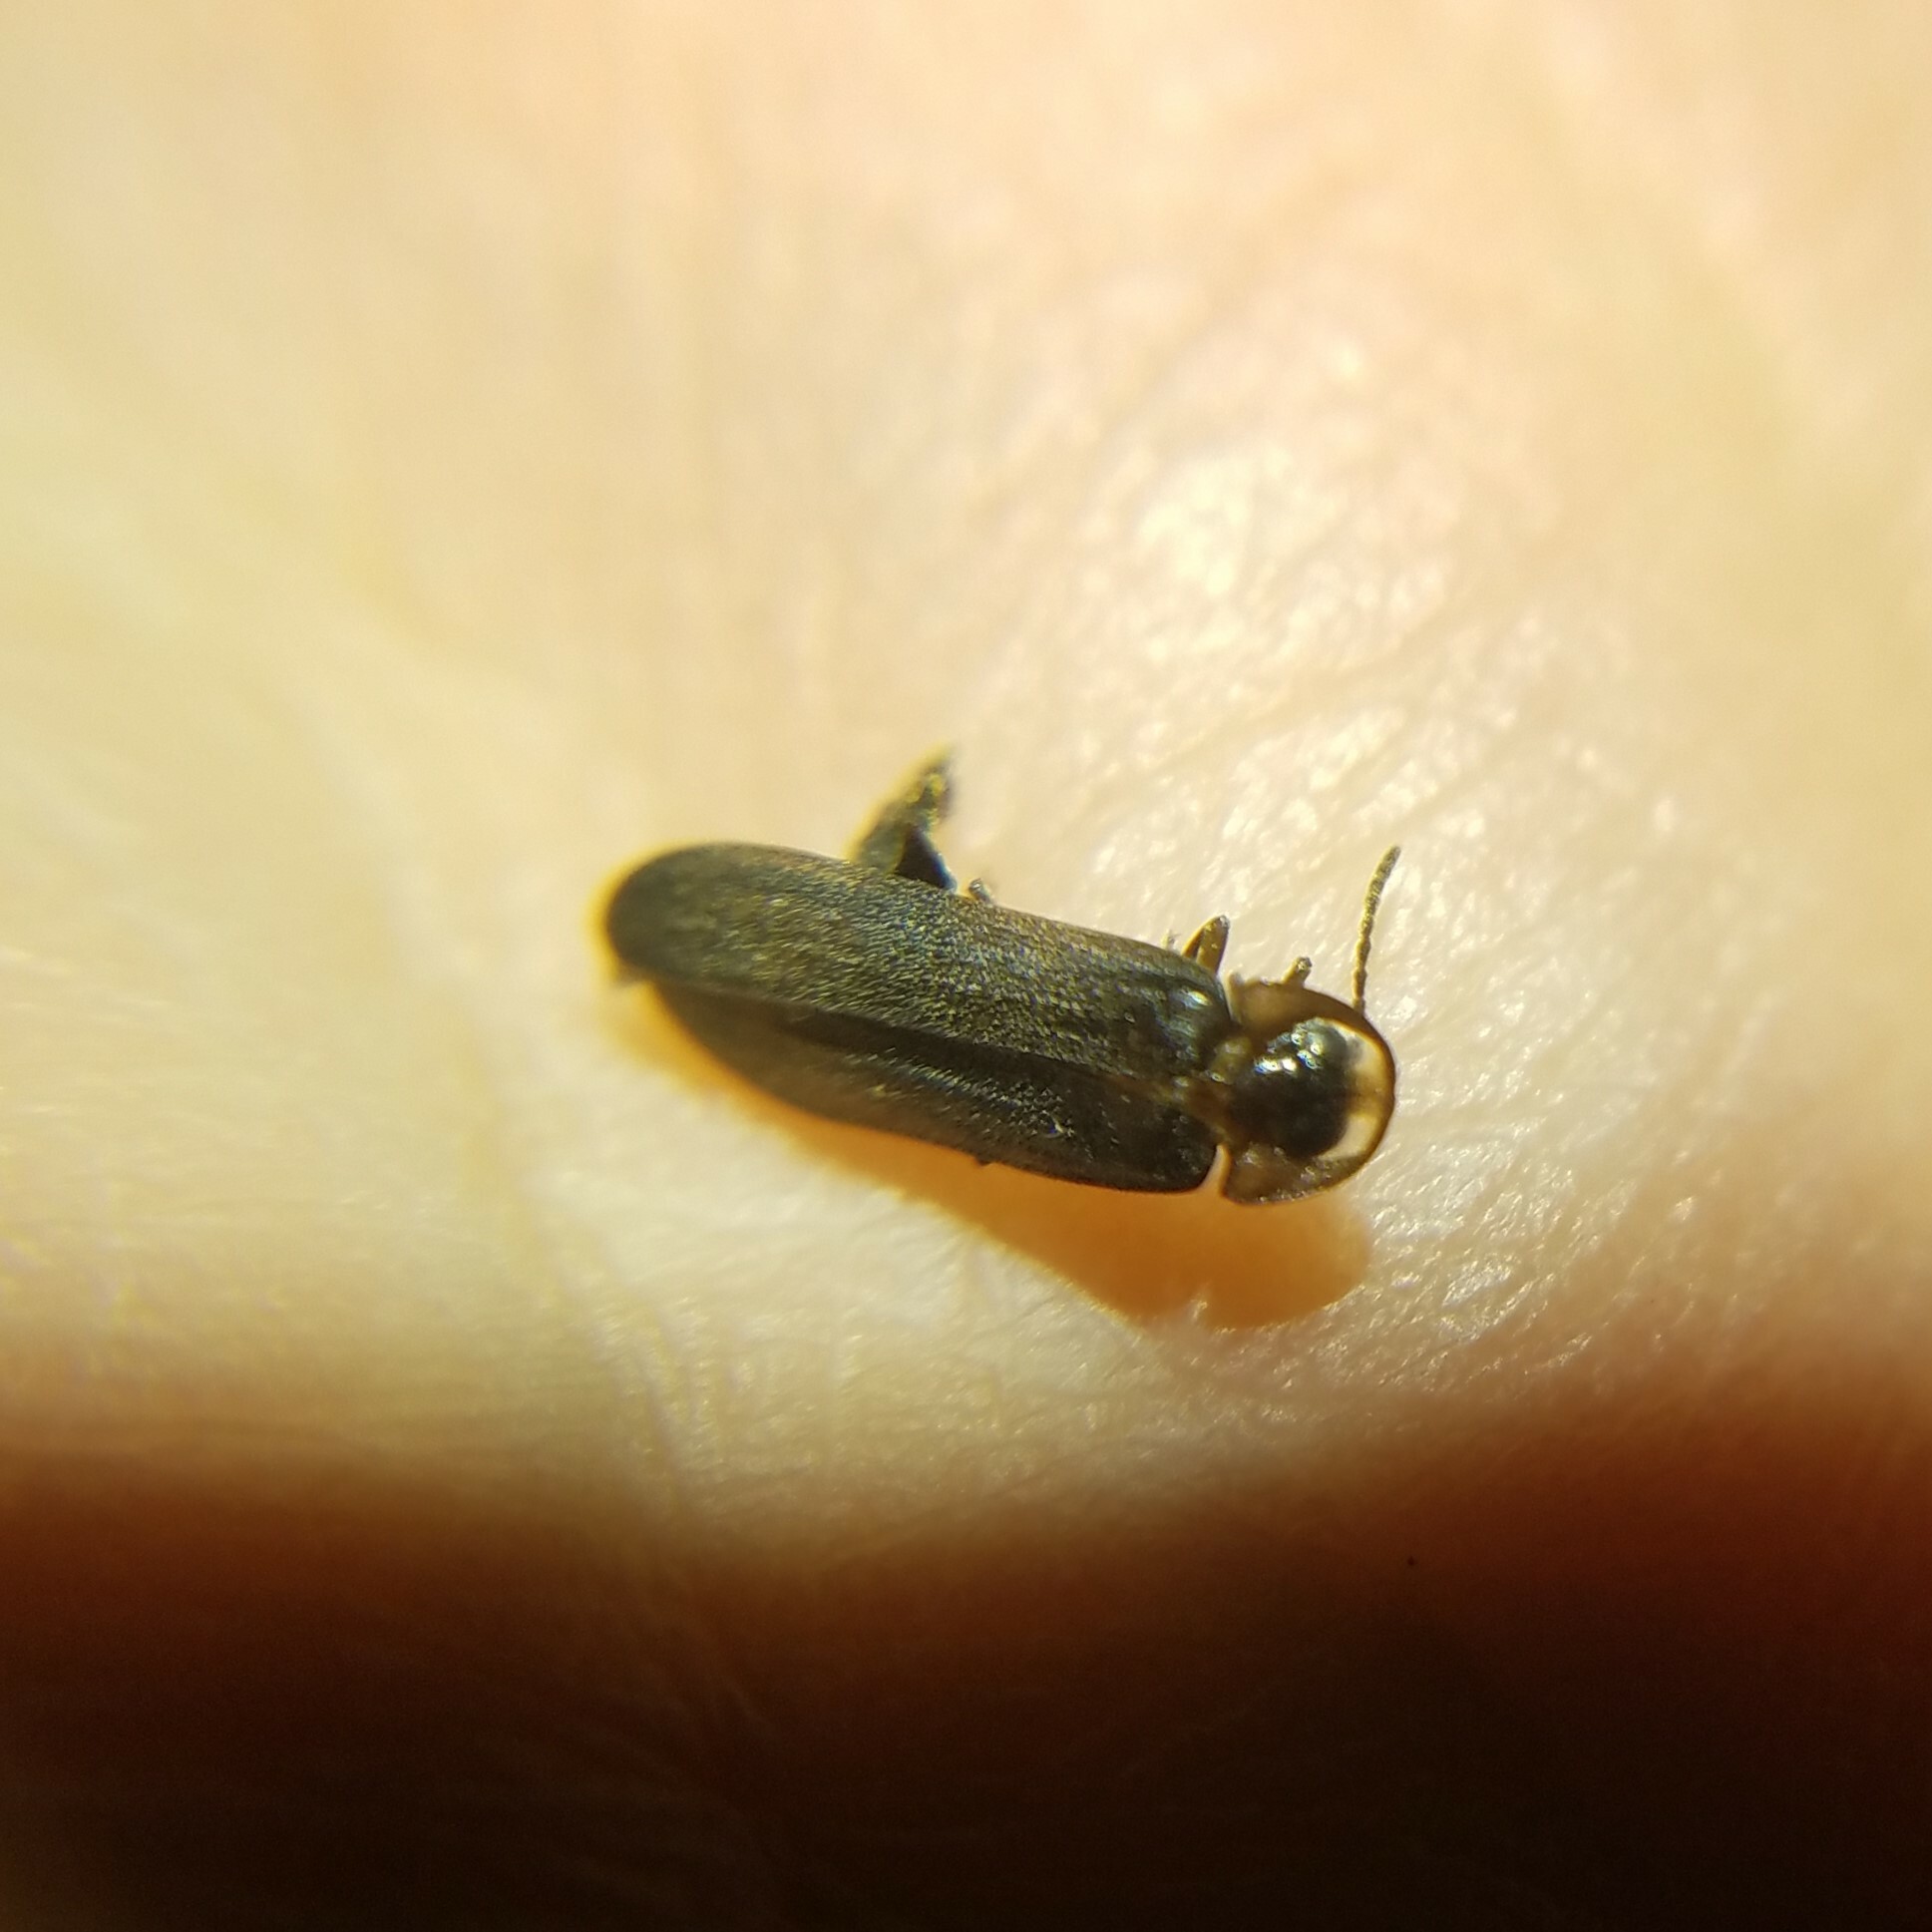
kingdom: Animalia
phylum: Arthropoda
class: Insecta
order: Coleoptera
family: Lampyridae
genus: Phausis
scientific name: Phausis reticulata
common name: Blue ghost firefly
